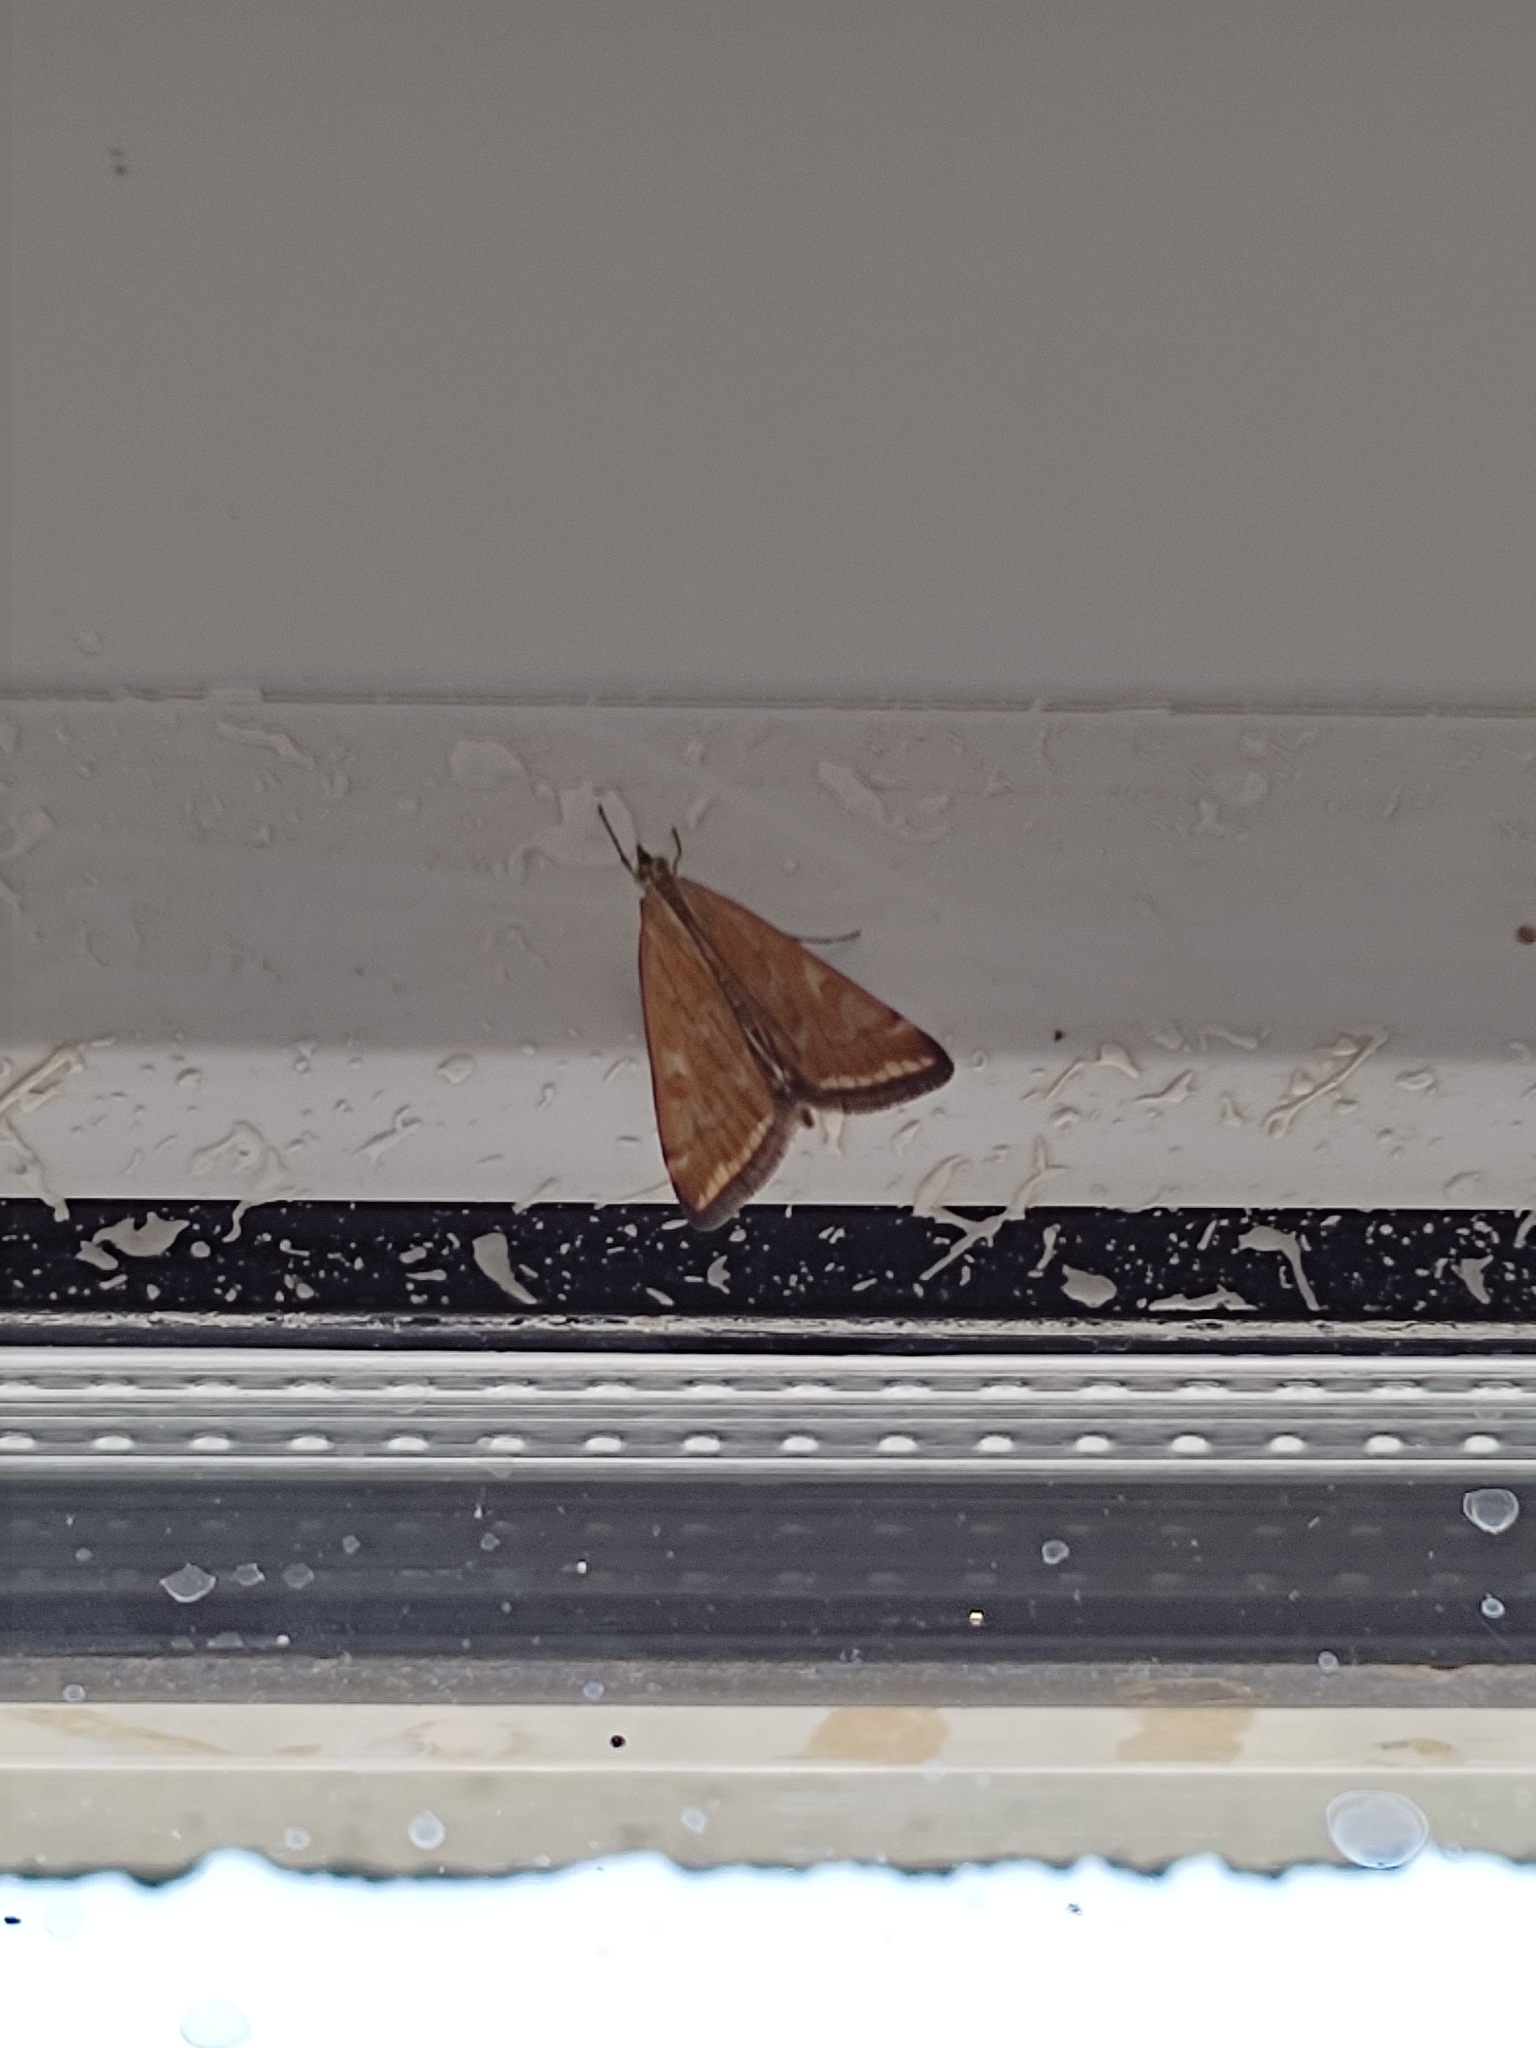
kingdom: Animalia
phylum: Arthropoda
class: Insecta
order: Lepidoptera
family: Crambidae
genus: Loxostege
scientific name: Loxostege sticticalis
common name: Crambid moth
